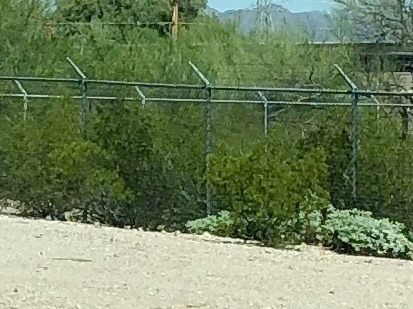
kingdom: Plantae
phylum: Tracheophyta
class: Magnoliopsida
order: Zygophyllales
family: Zygophyllaceae
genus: Larrea
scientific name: Larrea tridentata
